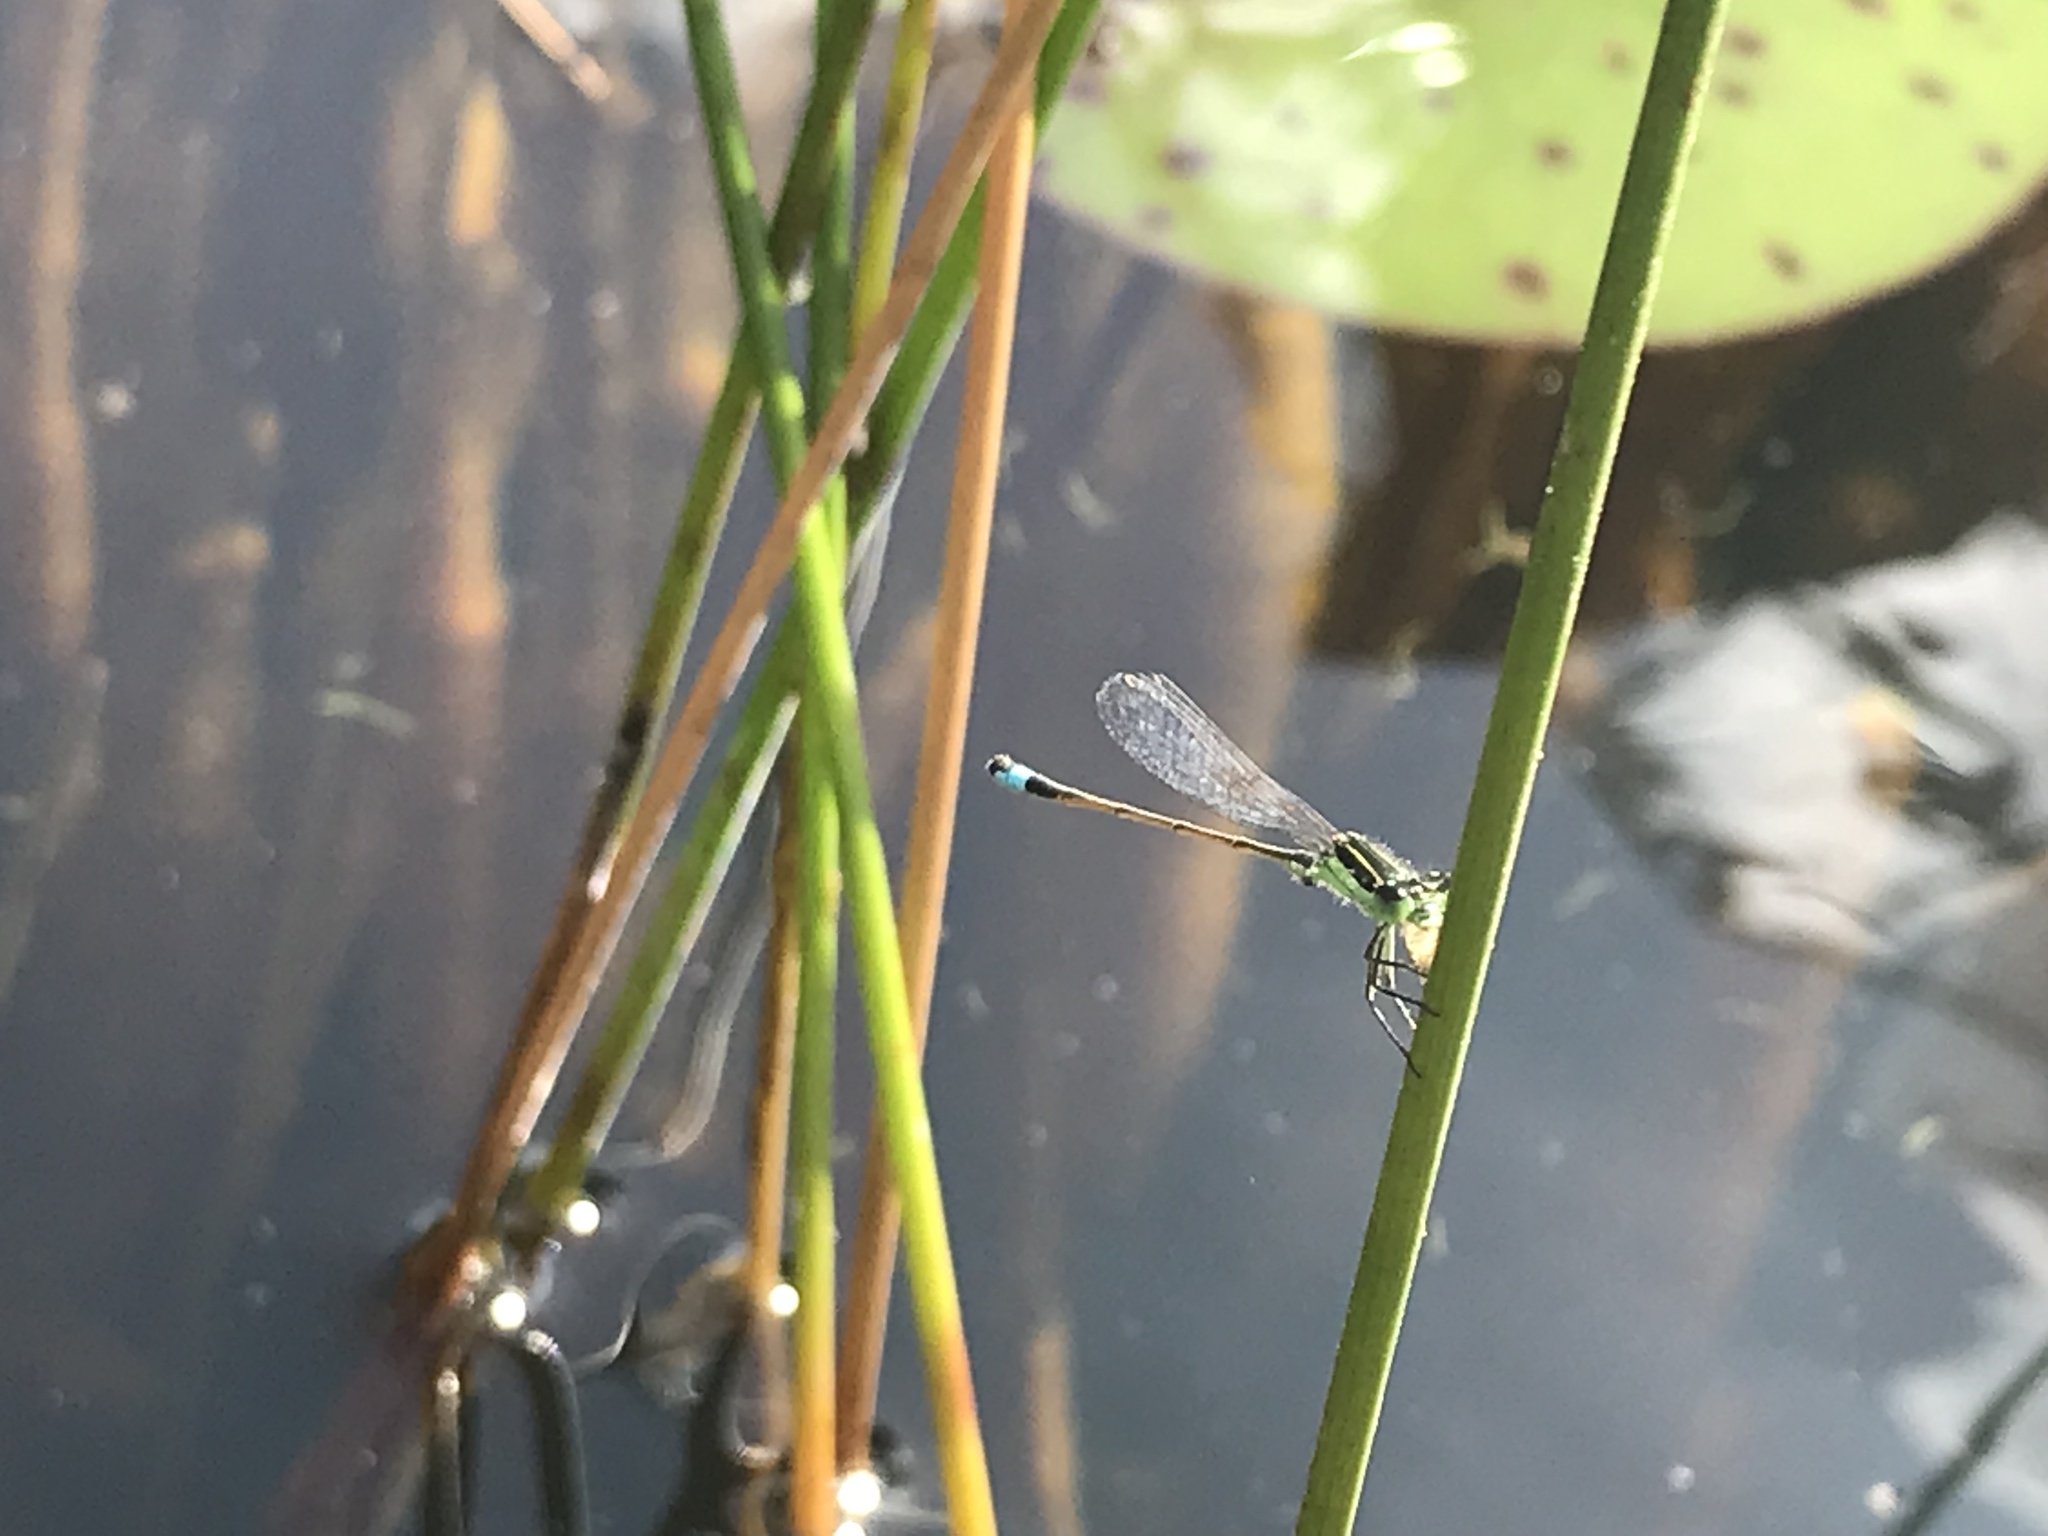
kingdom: Animalia
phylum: Arthropoda
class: Insecta
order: Odonata
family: Coenagrionidae
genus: Ischnura
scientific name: Ischnura ramburii
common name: Rambur's forktail
